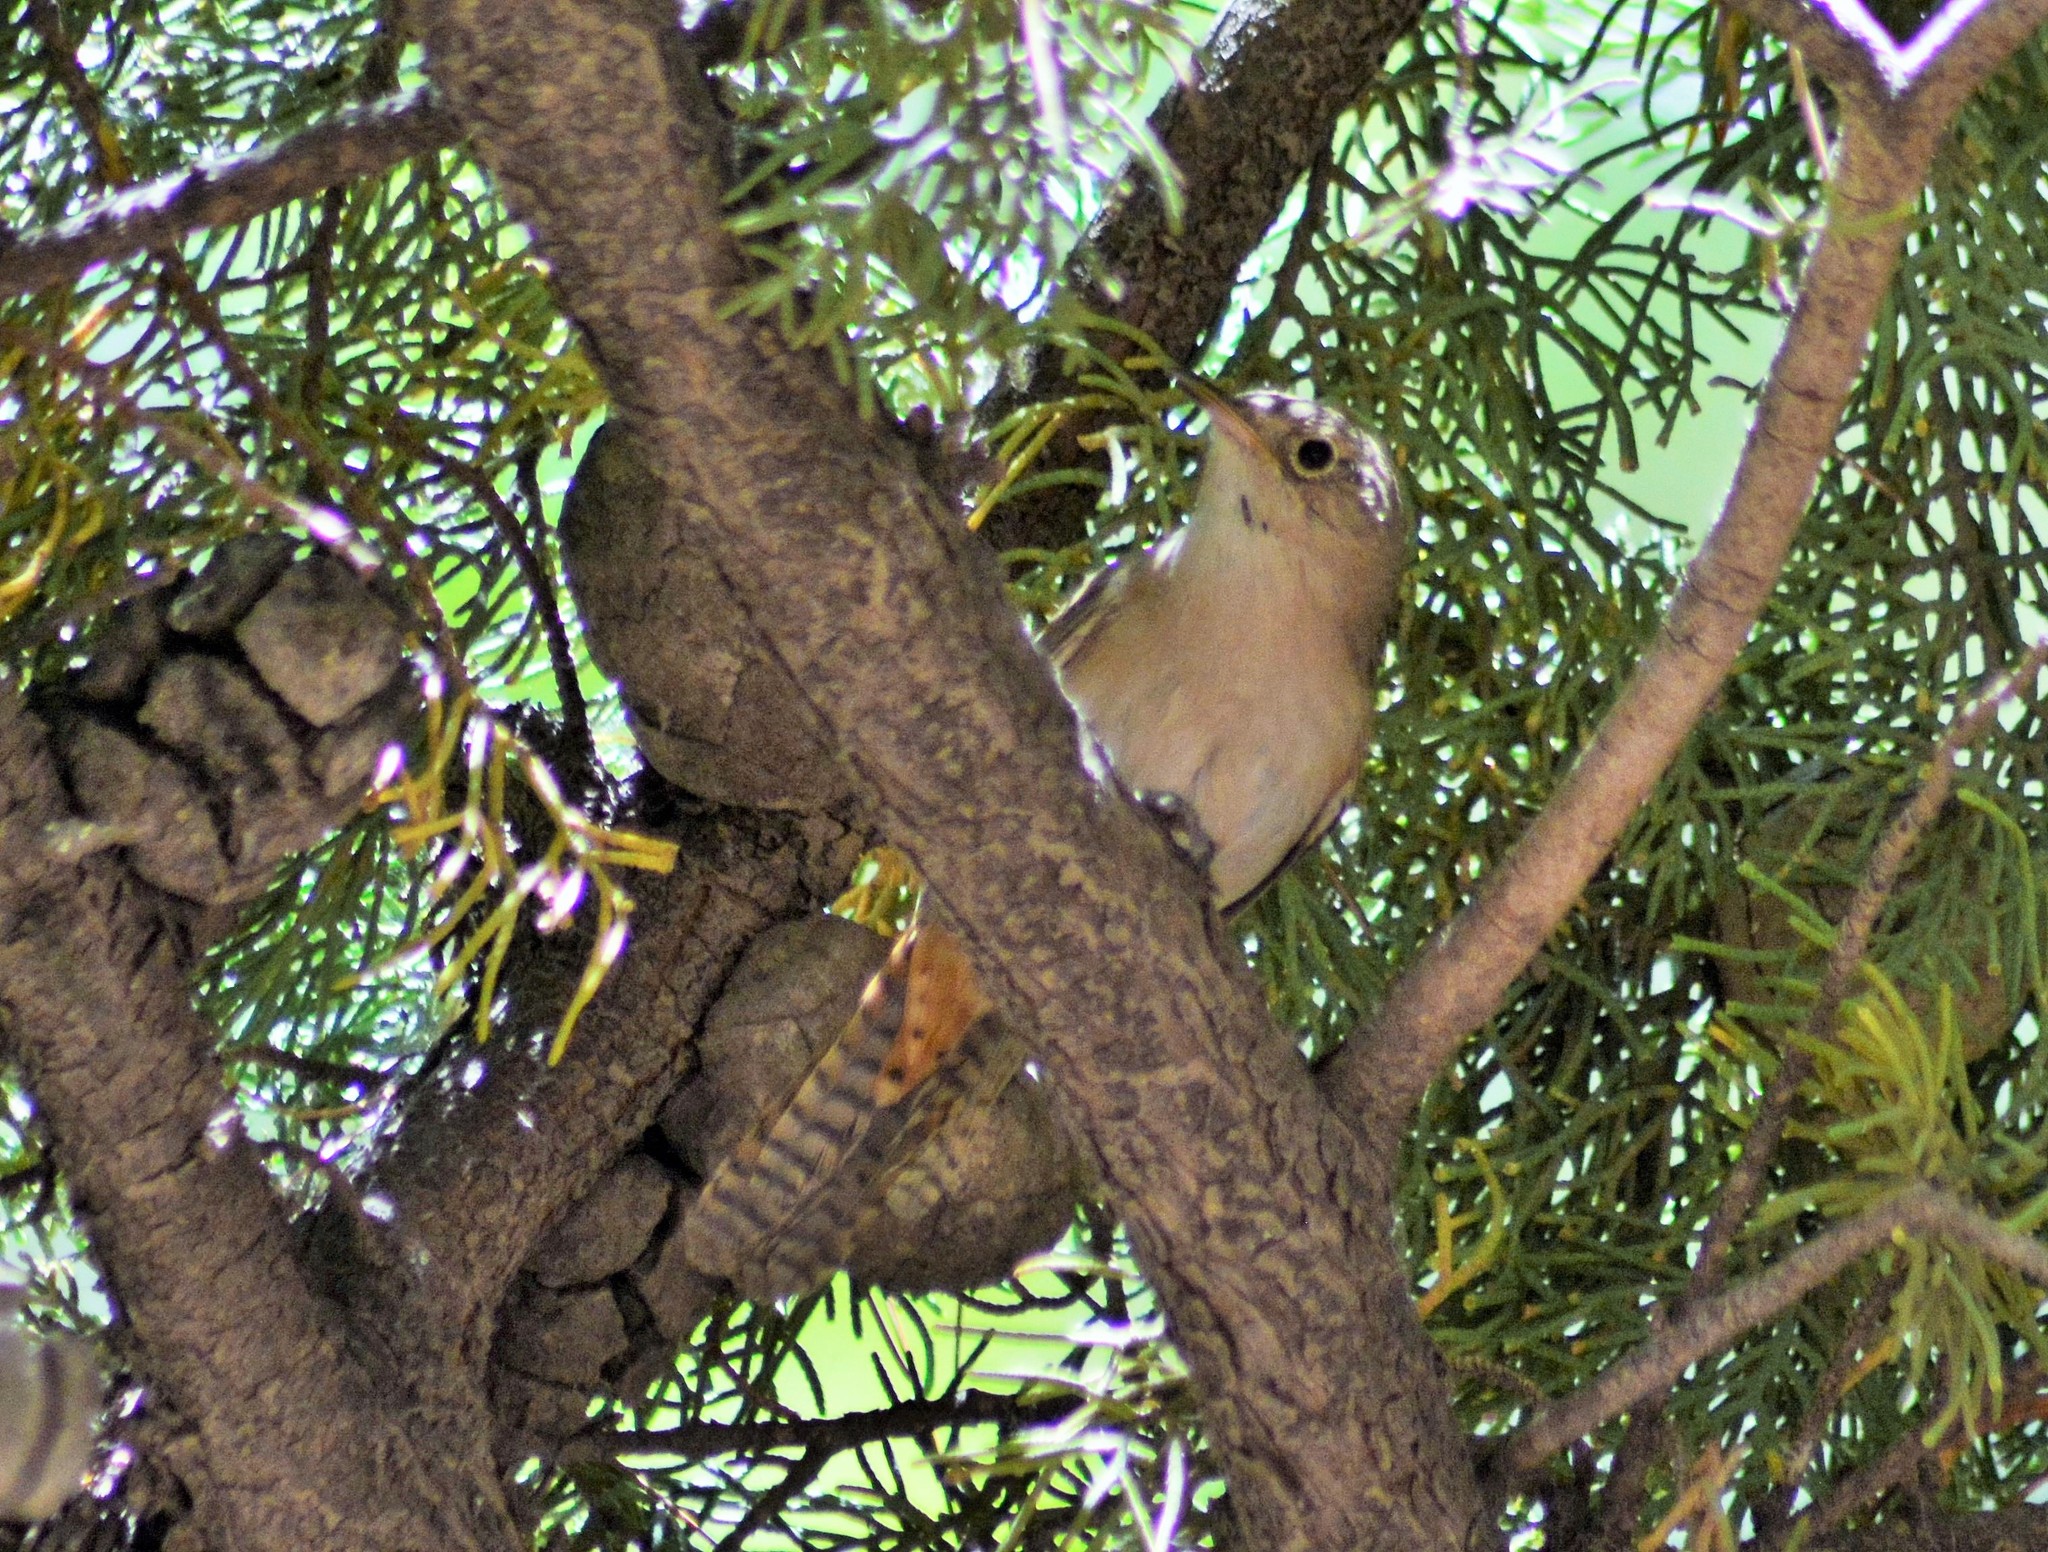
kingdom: Animalia
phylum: Chordata
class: Aves
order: Passeriformes
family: Troglodytidae
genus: Troglodytes
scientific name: Troglodytes aedon
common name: House wren
